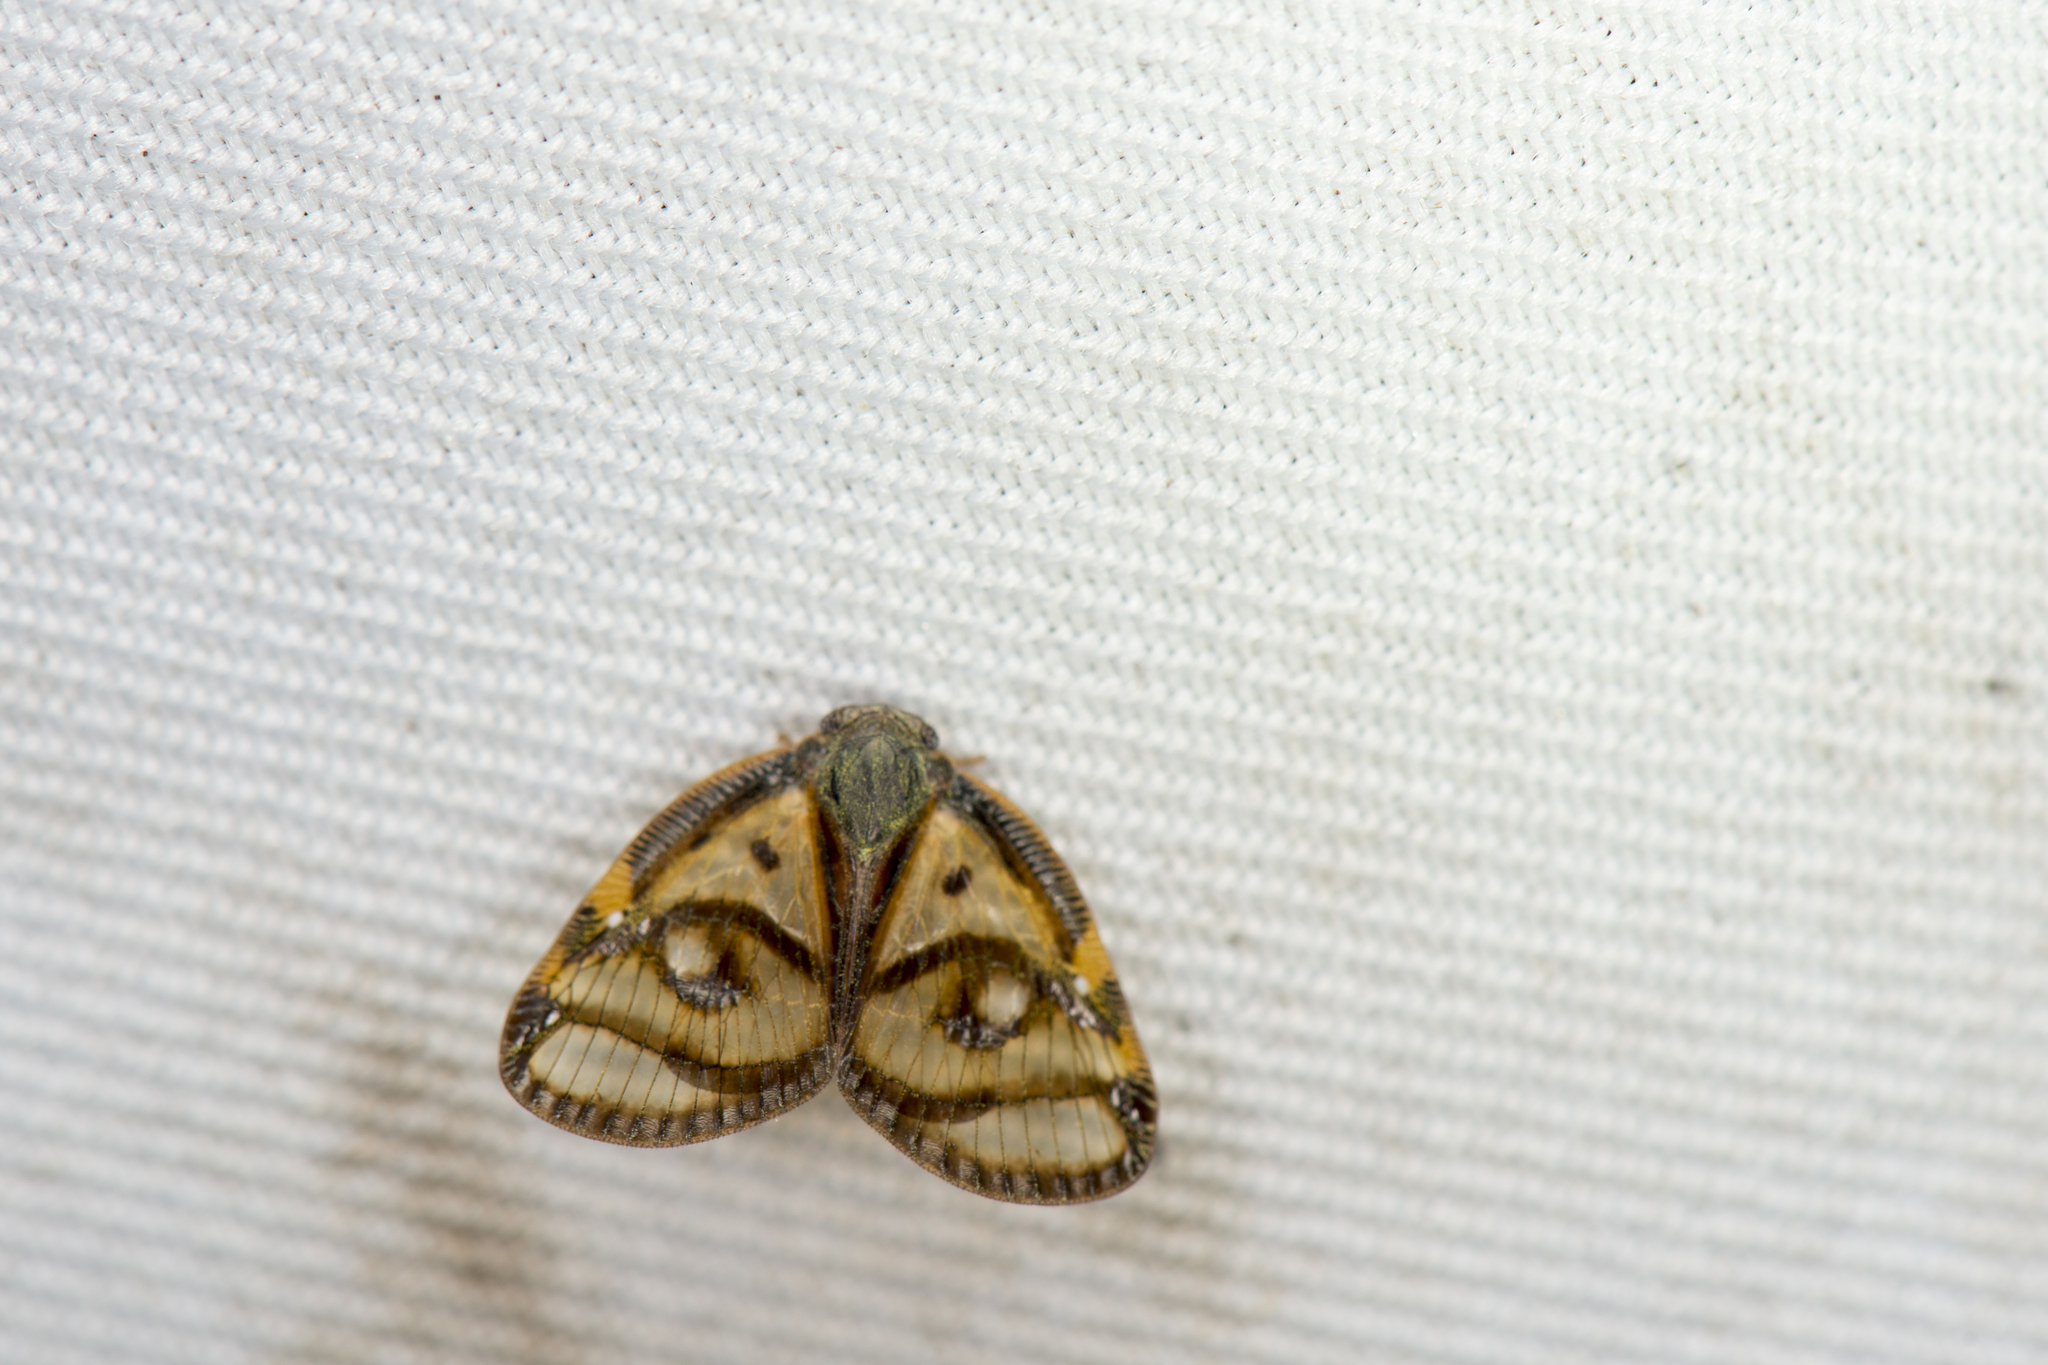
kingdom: Animalia
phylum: Arthropoda
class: Insecta
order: Hemiptera
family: Ricaniidae
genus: Euricania
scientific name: Euricania ocella
